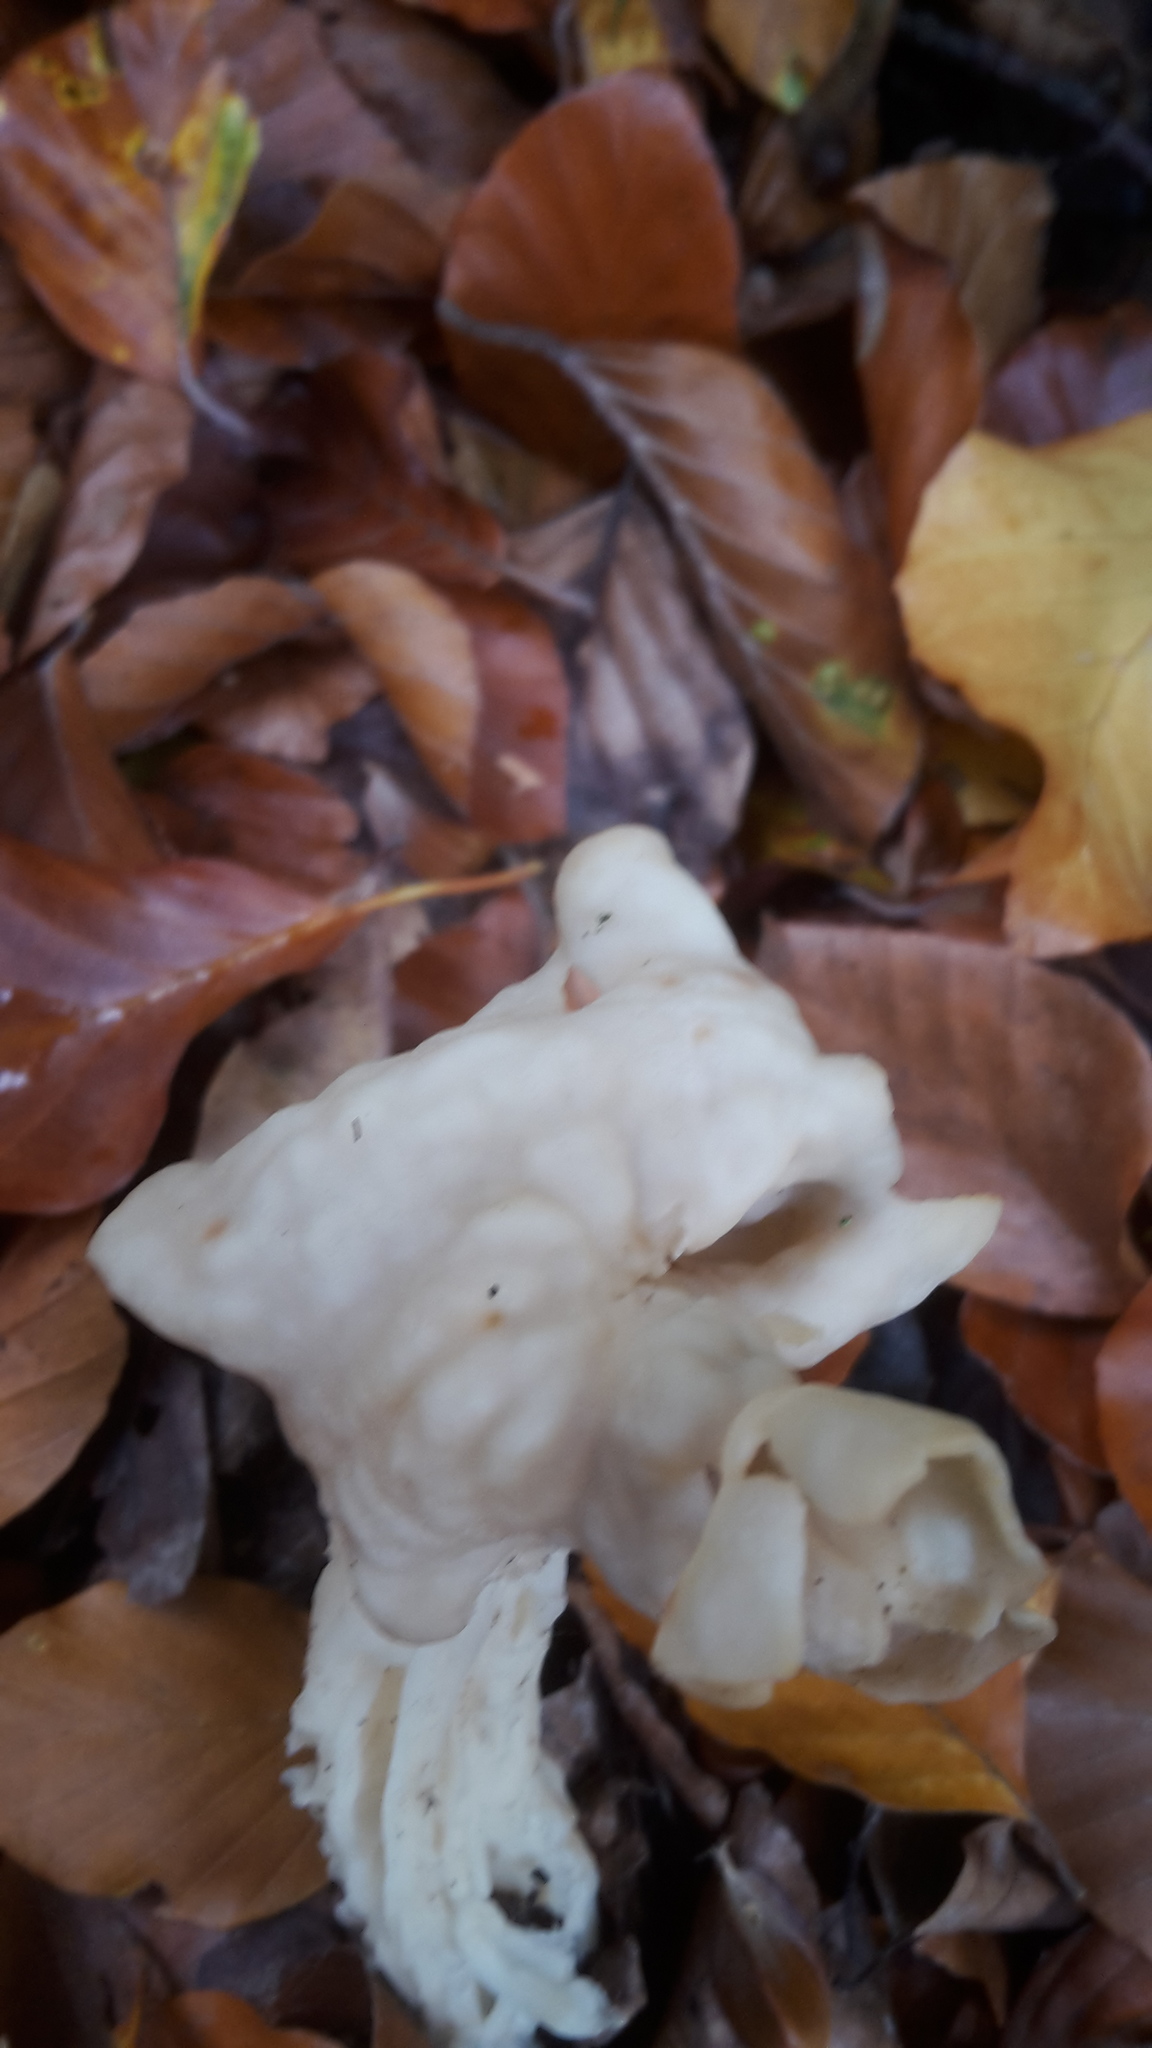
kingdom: Fungi
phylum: Ascomycota
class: Pezizomycetes
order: Pezizales
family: Helvellaceae
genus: Helvella
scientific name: Helvella crispa
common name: White saddle
